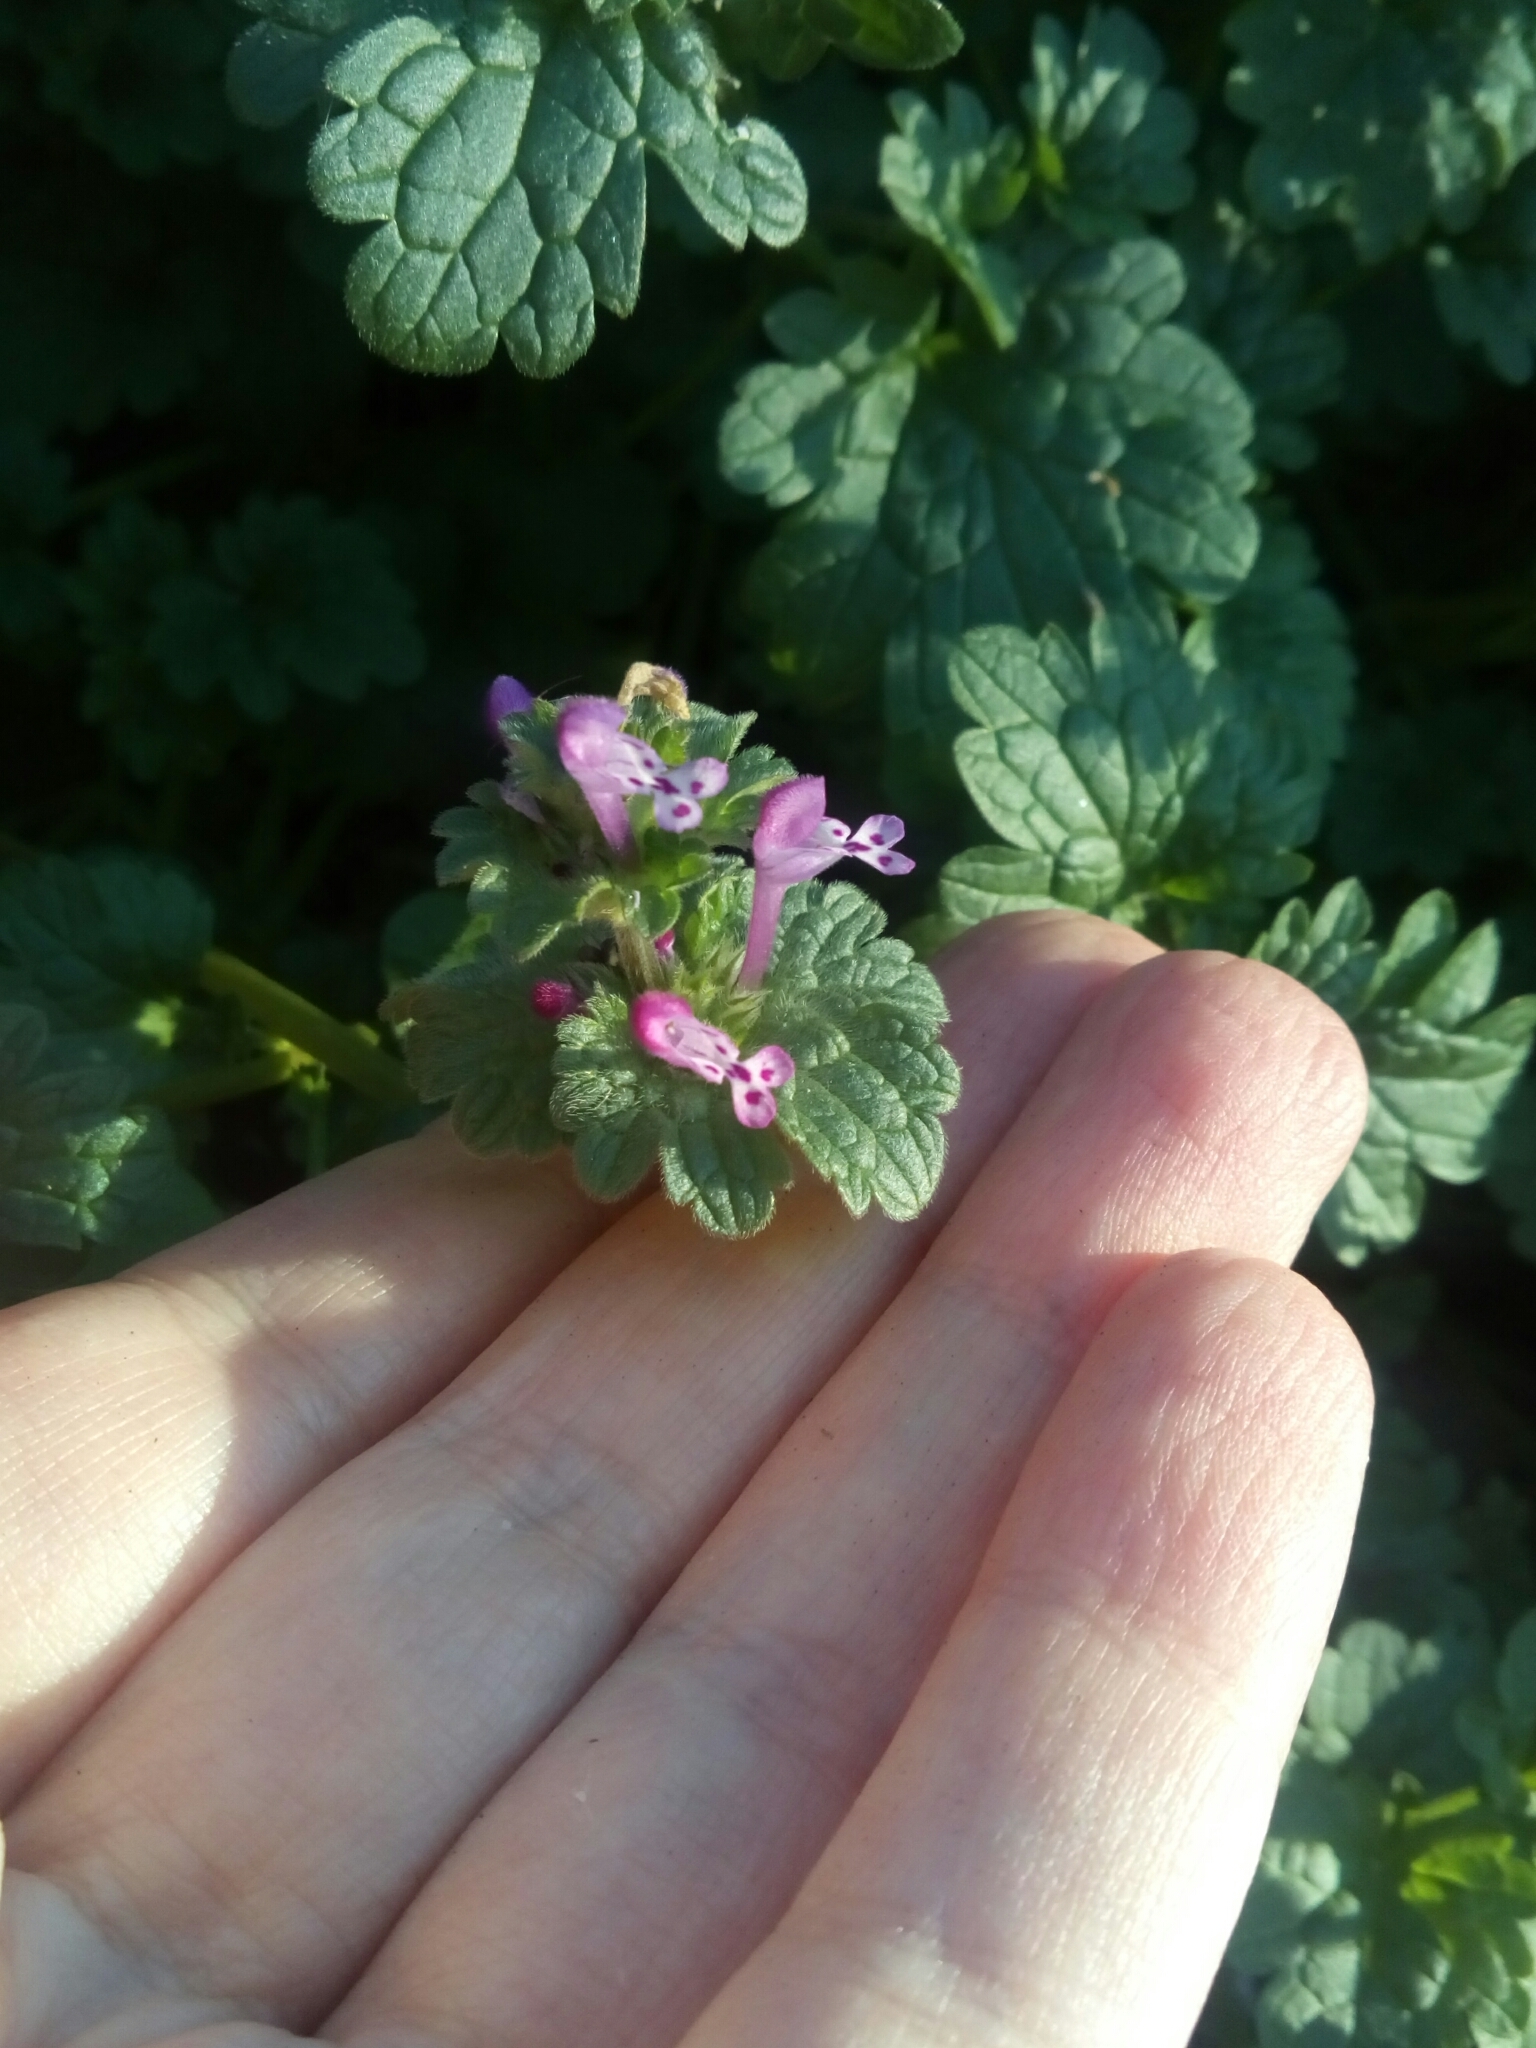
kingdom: Plantae
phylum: Tracheophyta
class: Magnoliopsida
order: Lamiales
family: Lamiaceae
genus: Lamium
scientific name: Lamium amplexicaule
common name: Henbit dead-nettle
